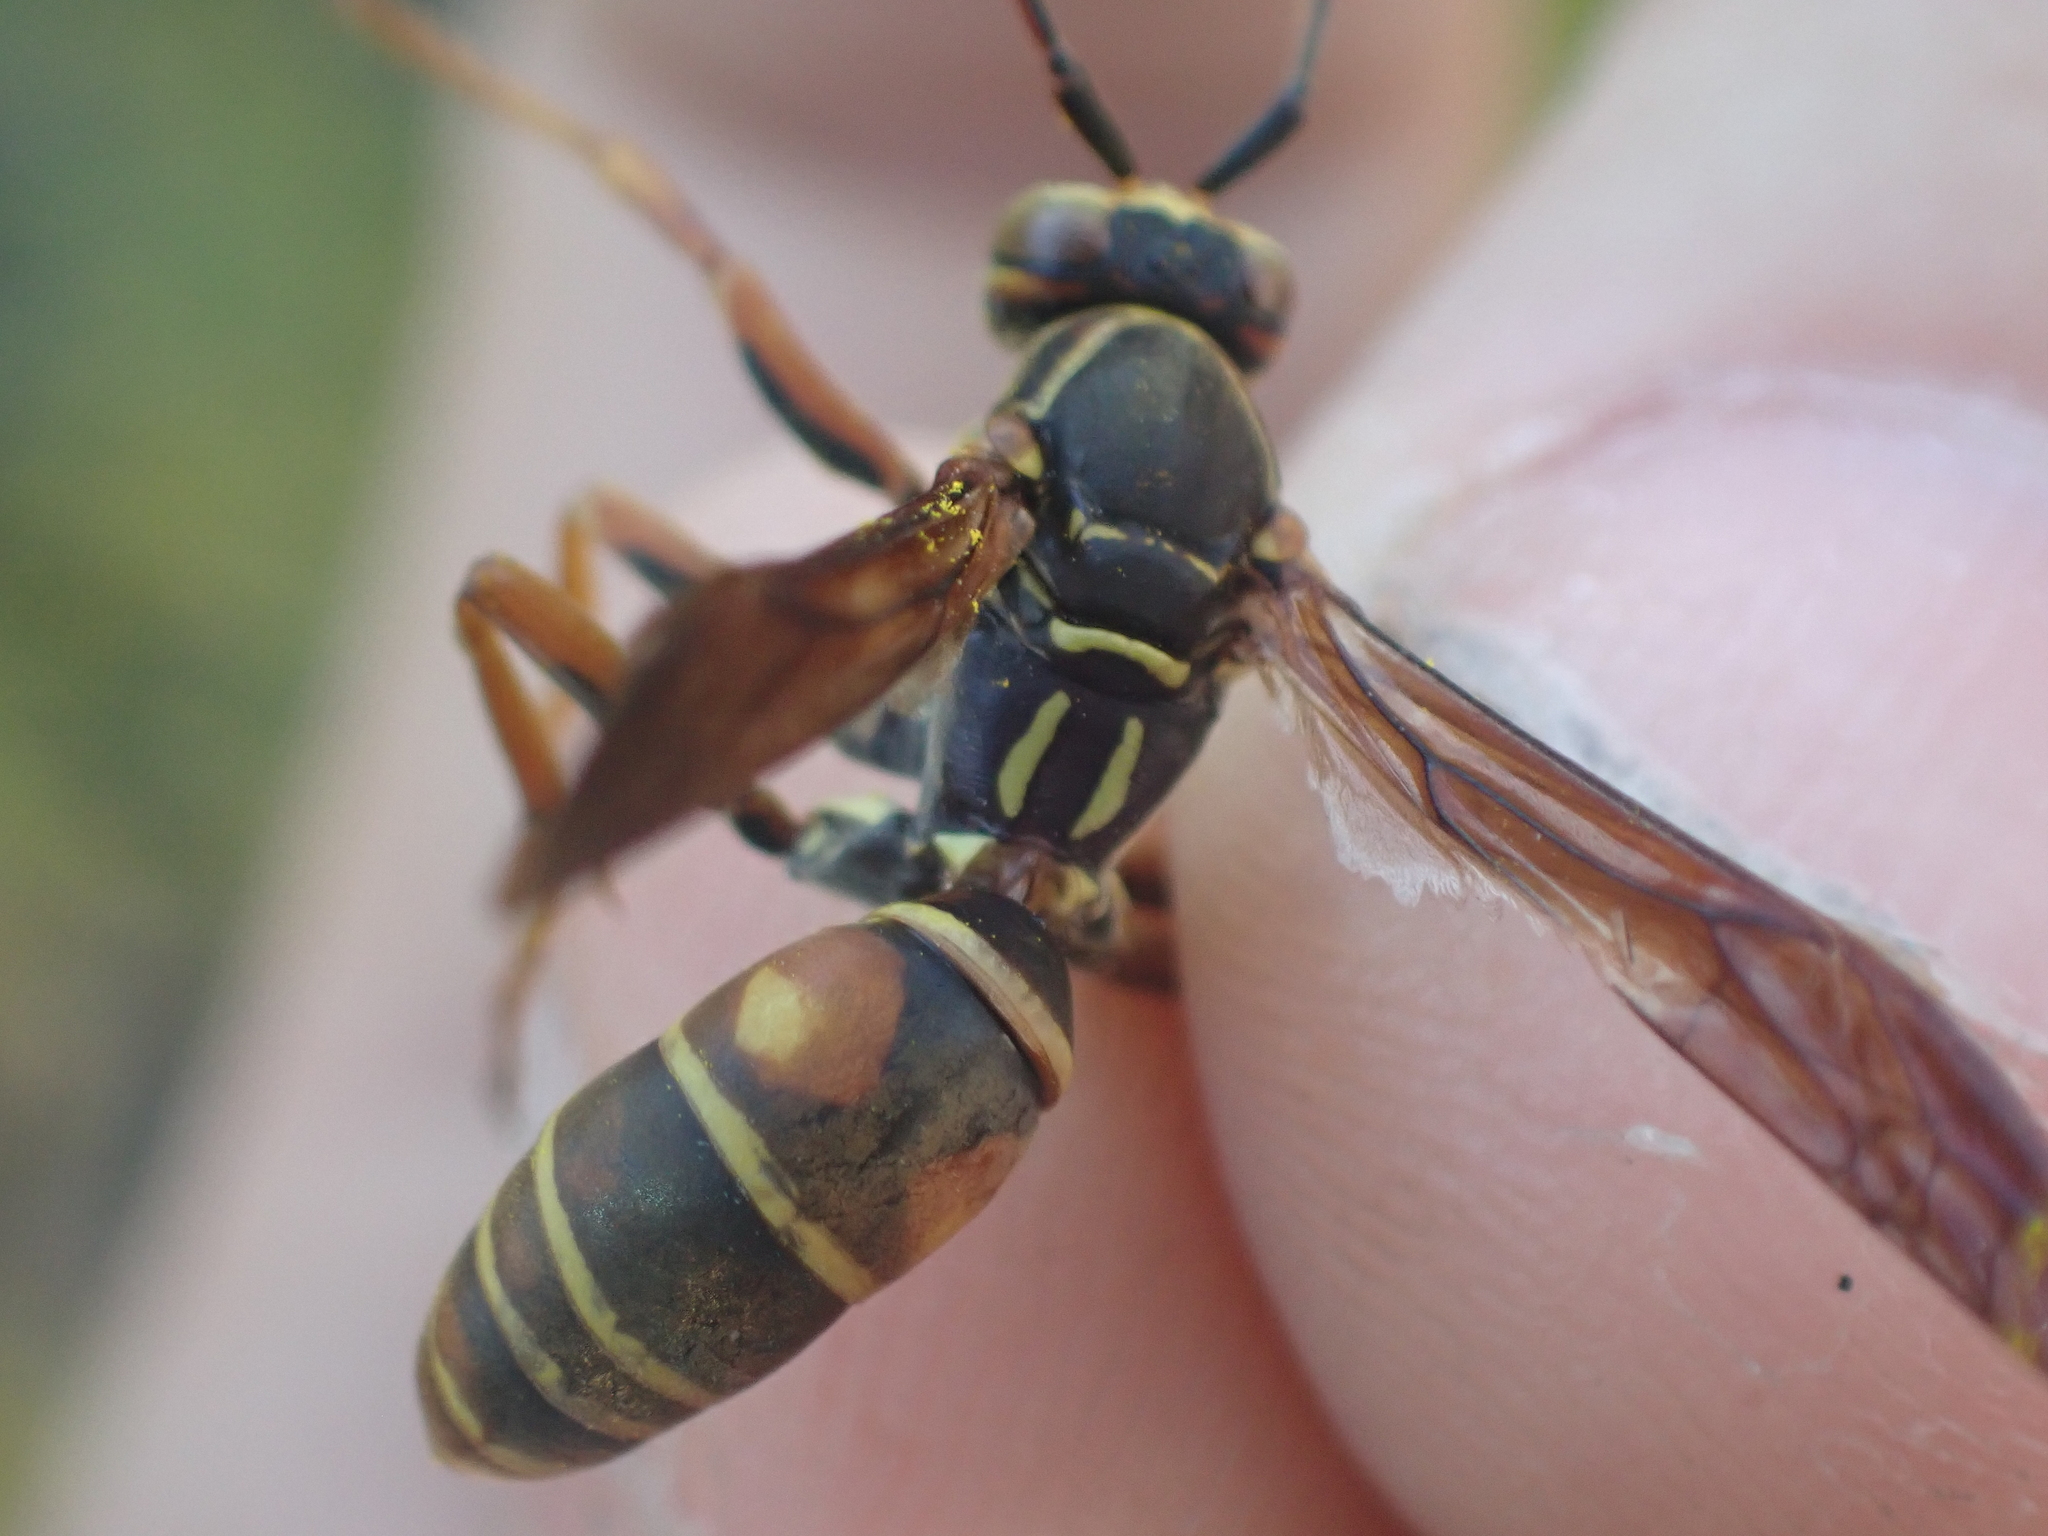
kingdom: Animalia
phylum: Arthropoda
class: Insecta
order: Hymenoptera
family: Eumenidae
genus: Polistes
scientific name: Polistes fuscatus
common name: Dark paper wasp
